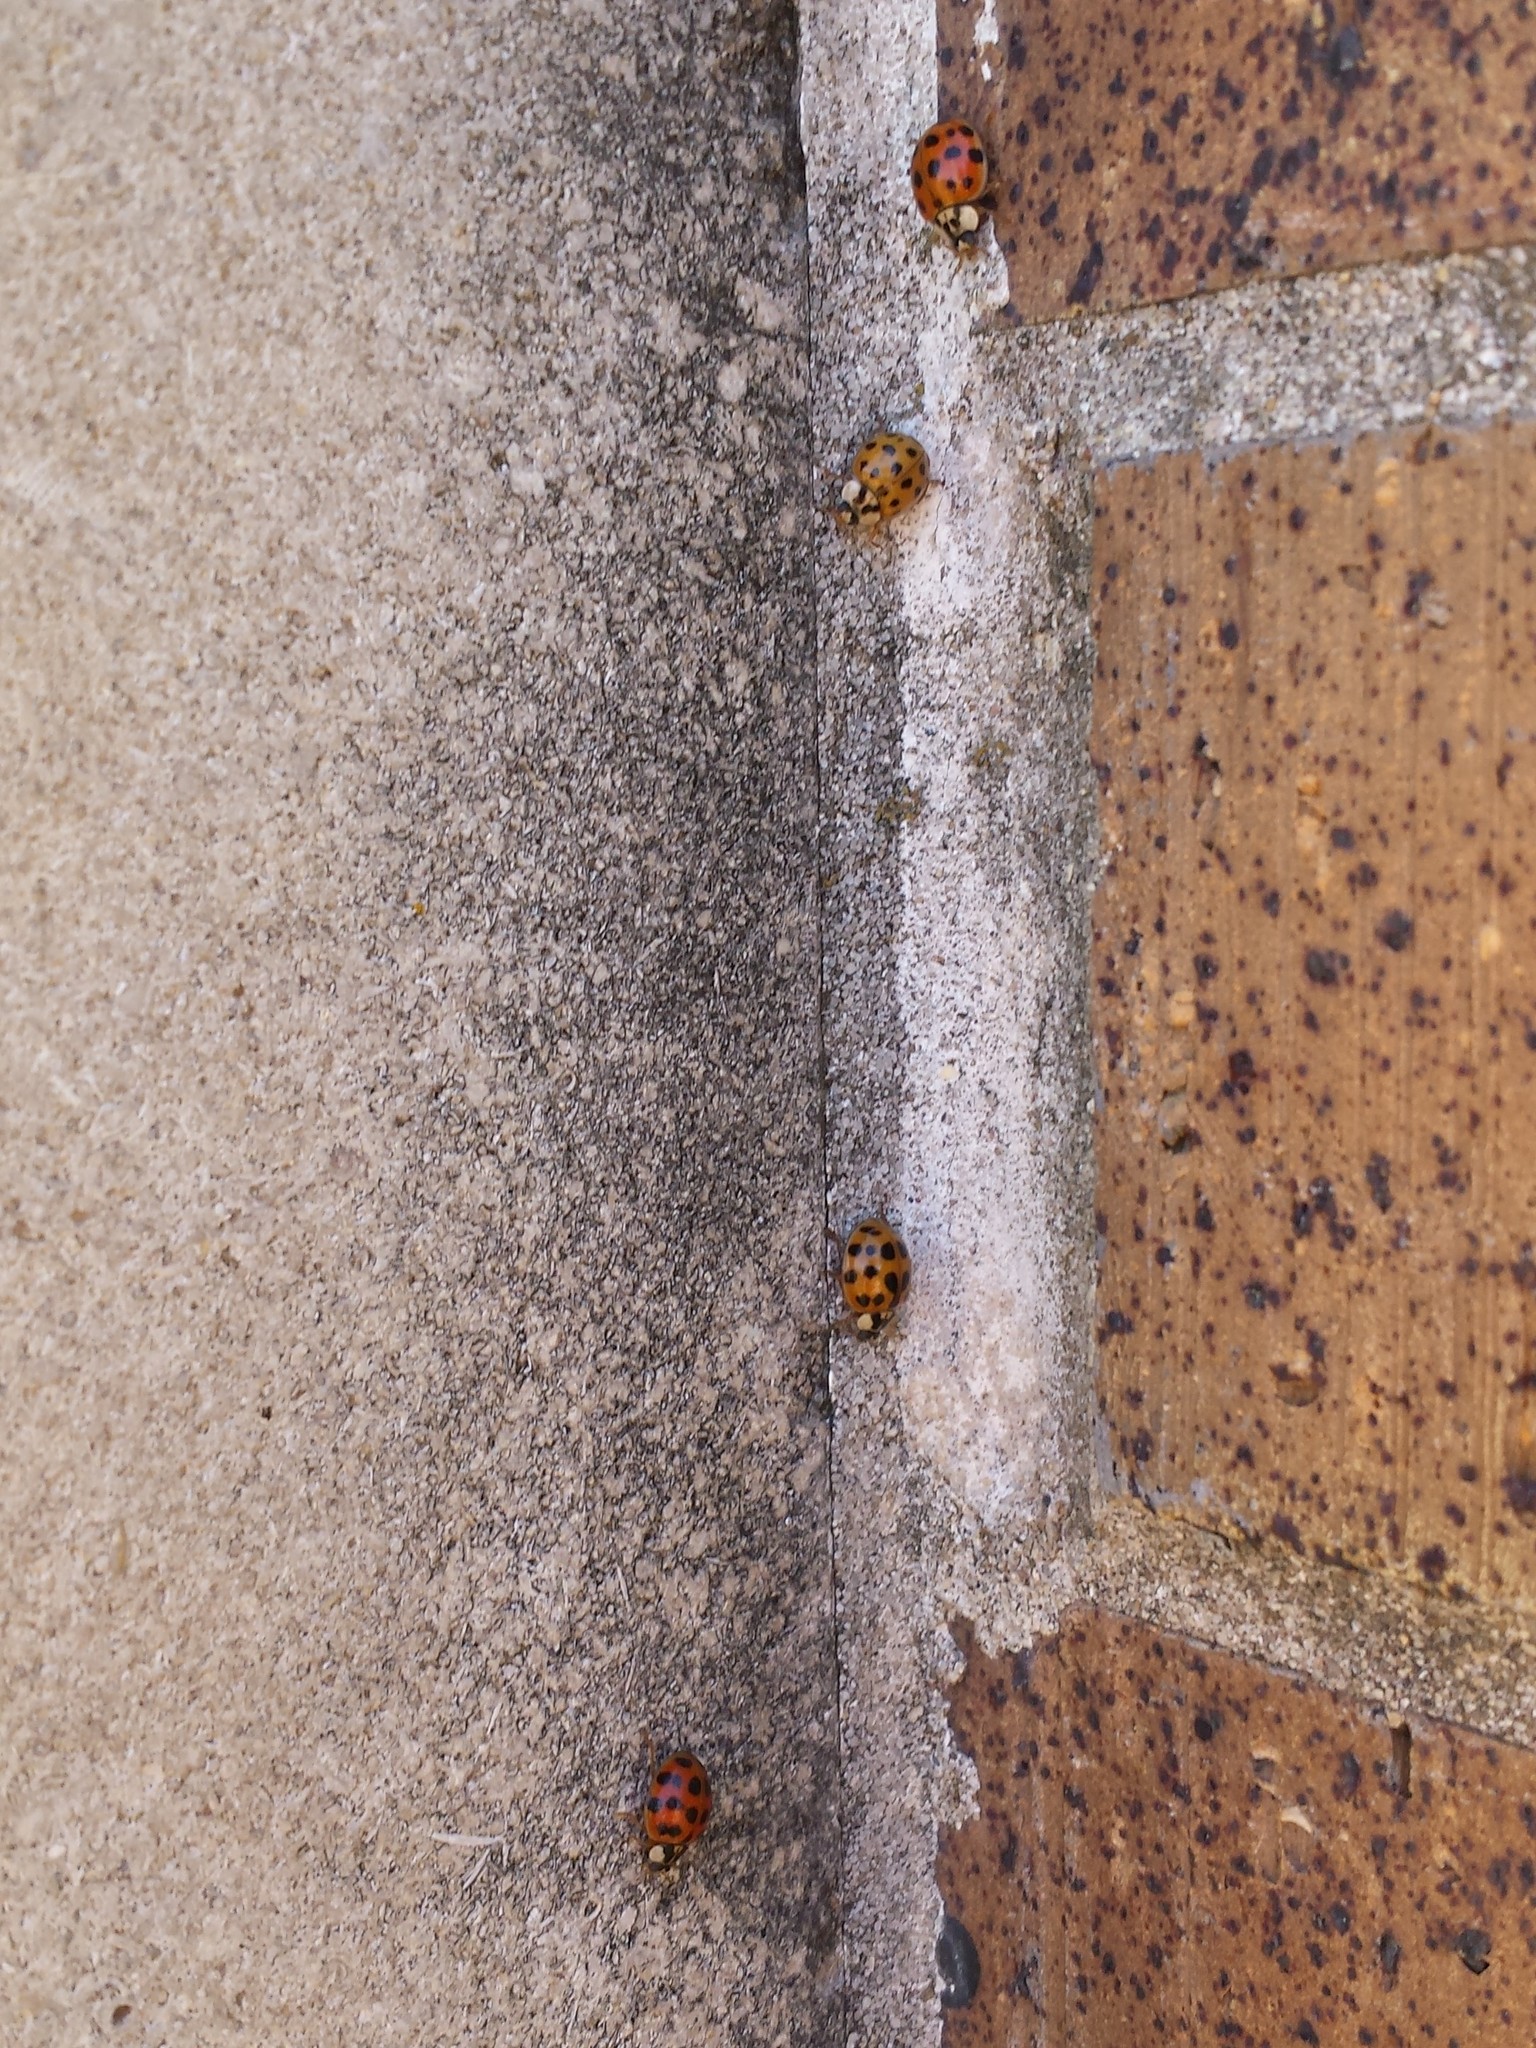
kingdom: Animalia
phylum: Arthropoda
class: Insecta
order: Coleoptera
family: Coccinellidae
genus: Harmonia
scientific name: Harmonia axyridis
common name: Harlequin ladybird
